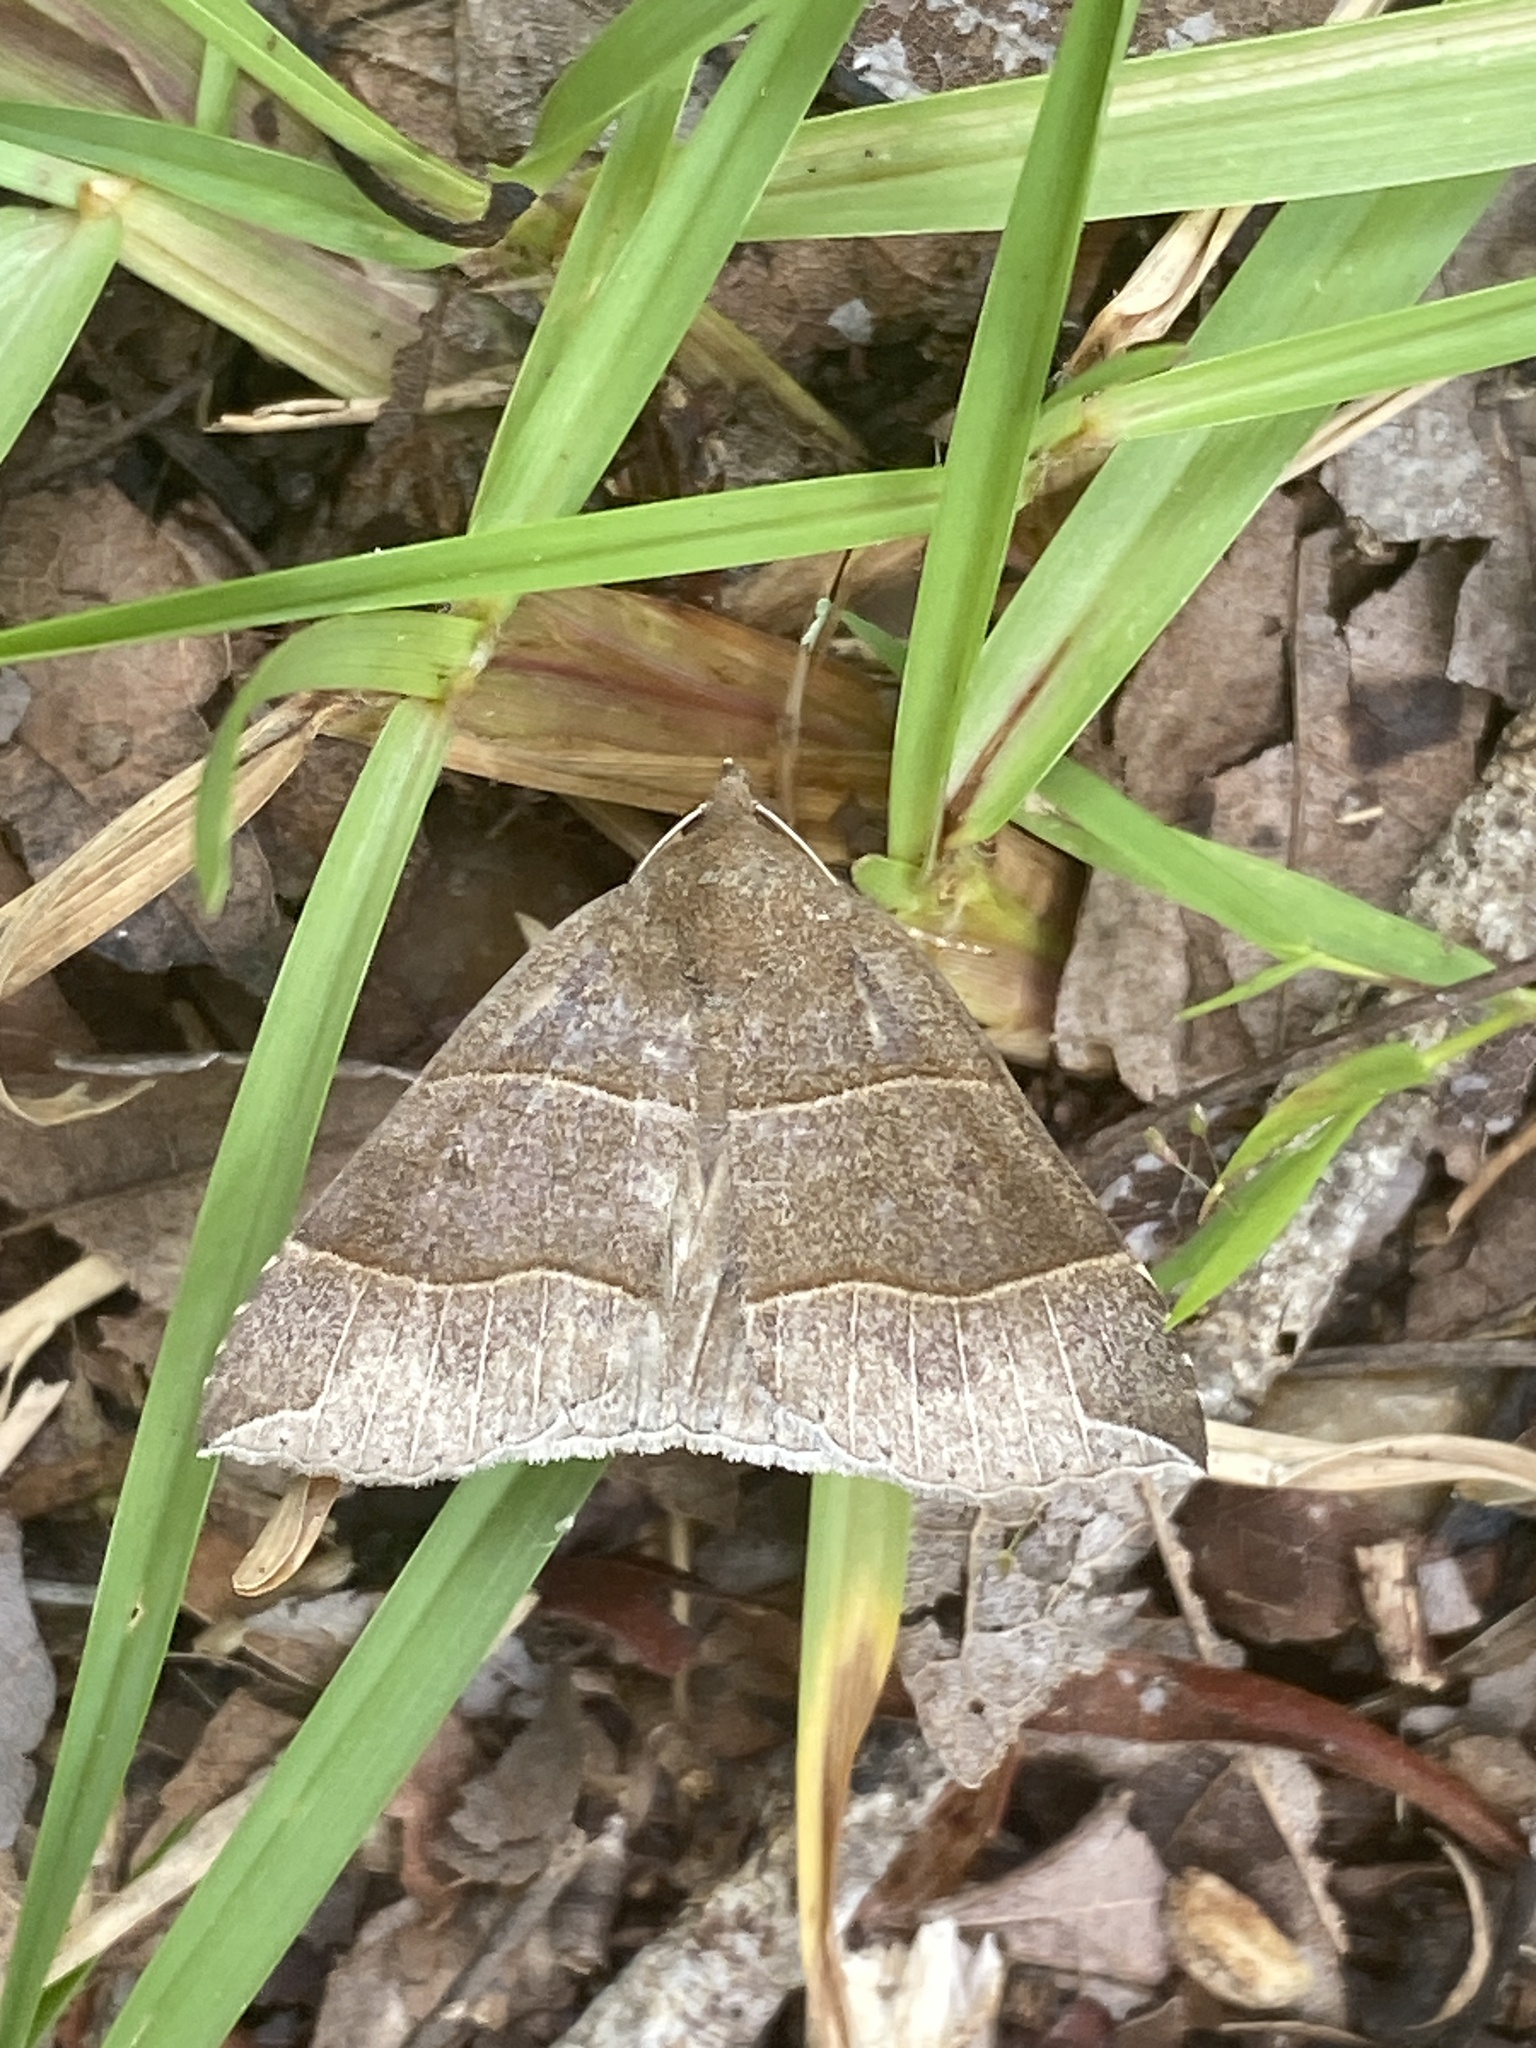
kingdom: Animalia
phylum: Arthropoda
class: Insecta
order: Lepidoptera
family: Erebidae
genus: Parallelia
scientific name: Parallelia bistriaris
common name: Maple looper moth
